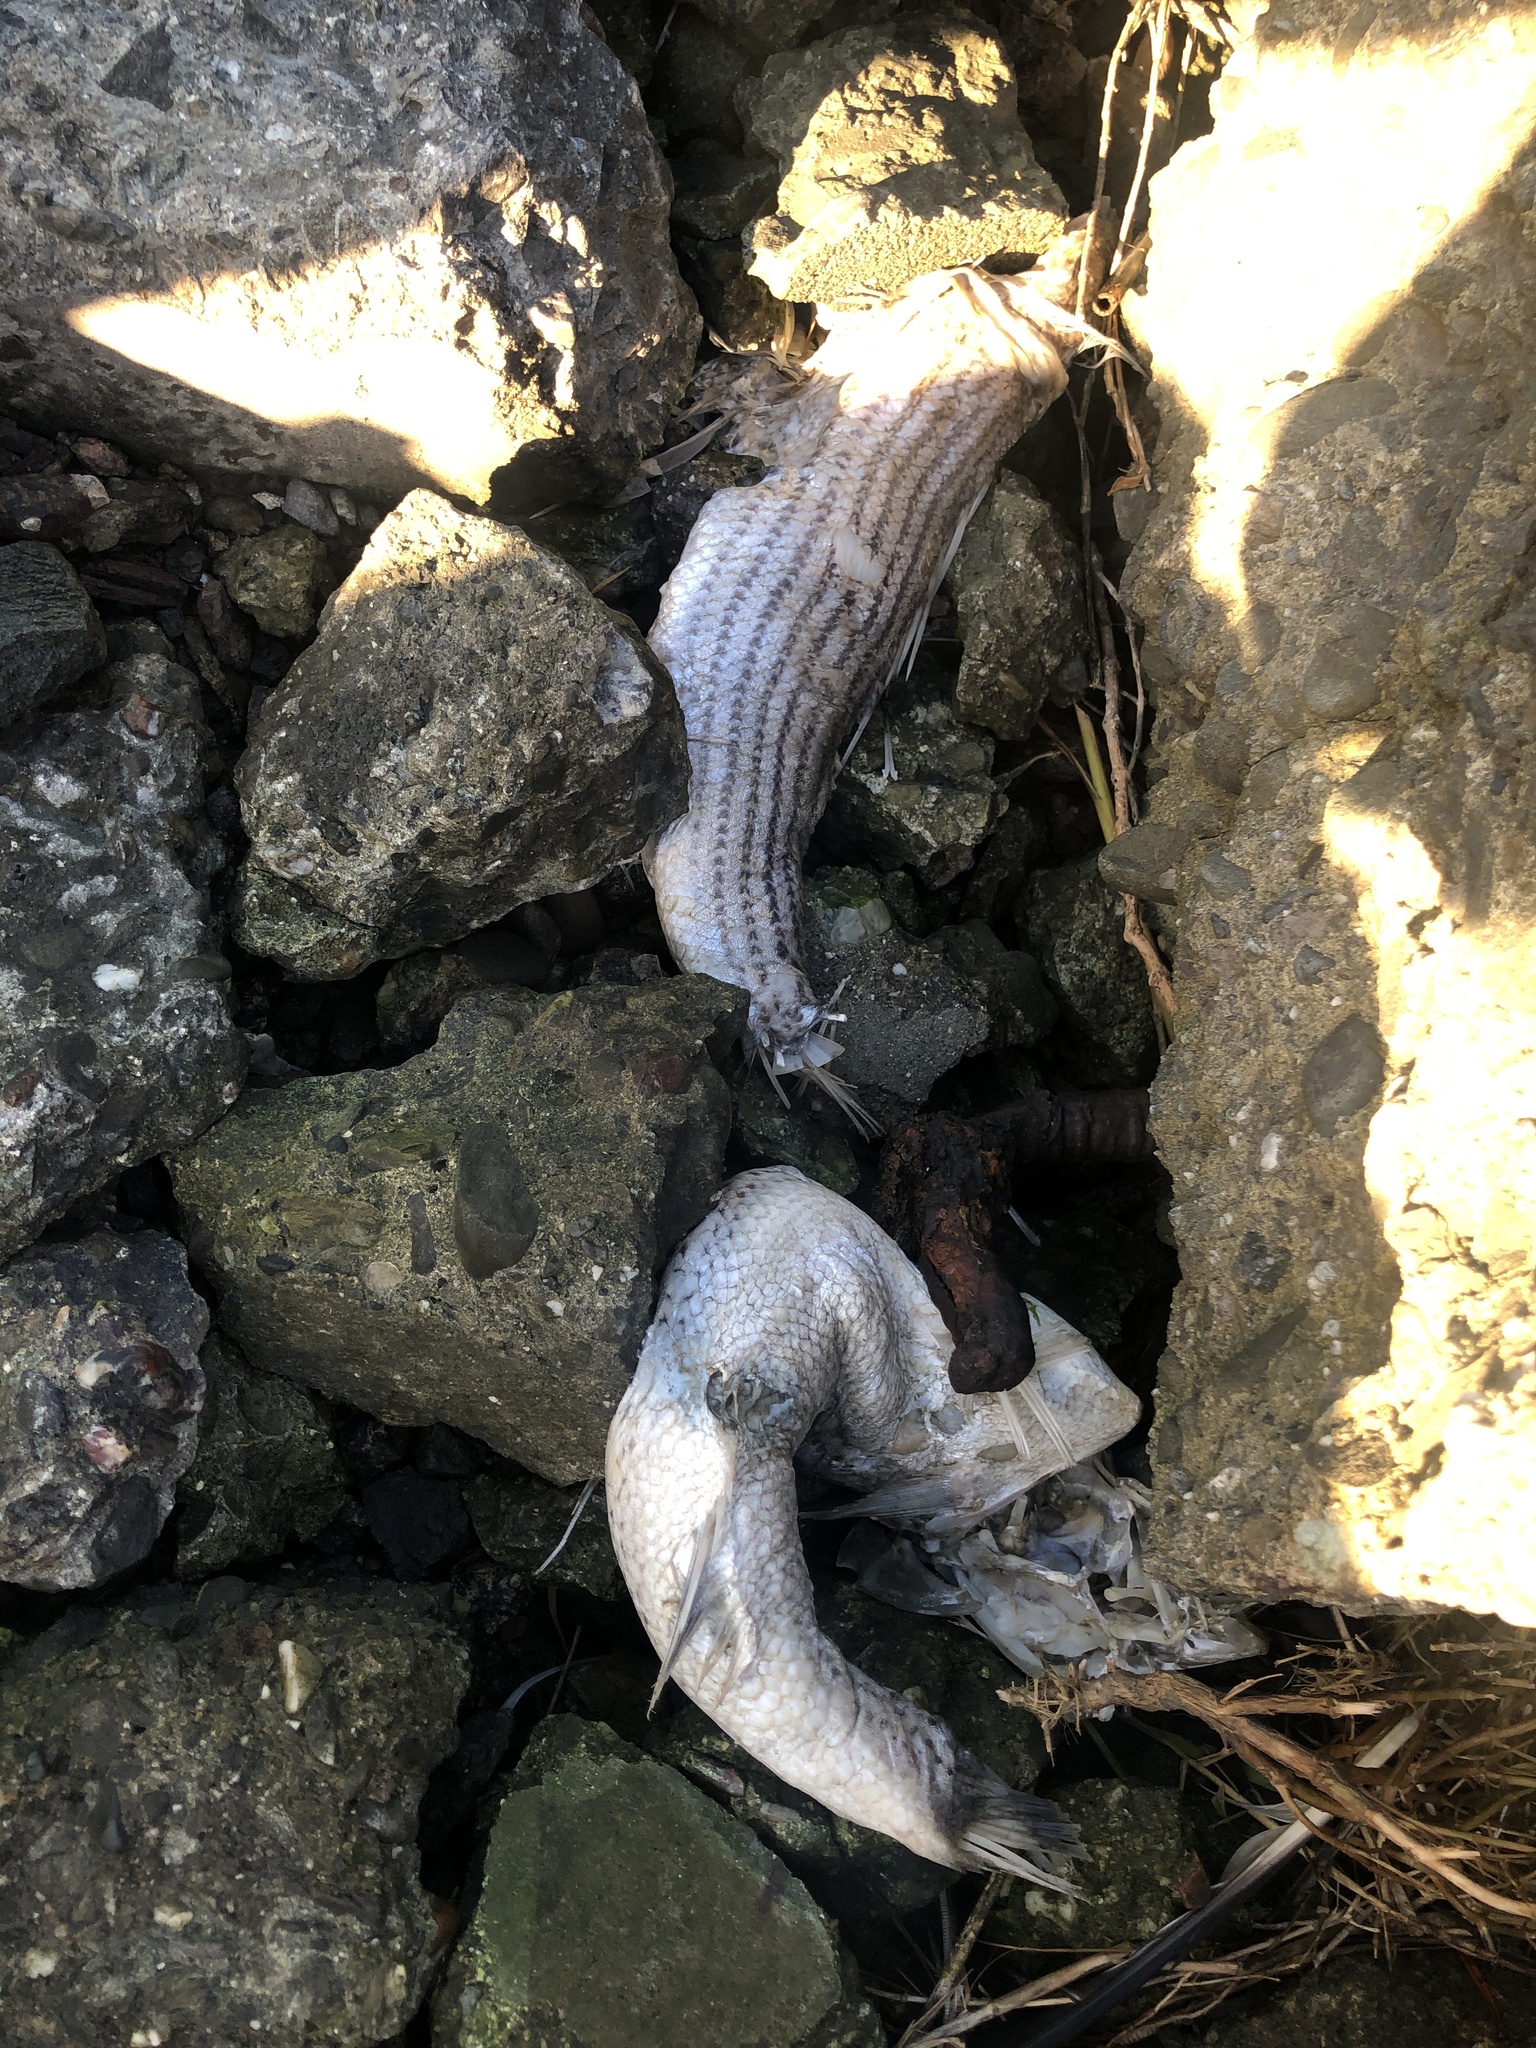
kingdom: Animalia
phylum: Chordata
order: Perciformes
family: Moronidae
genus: Morone
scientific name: Morone saxatilis
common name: Striped bass
